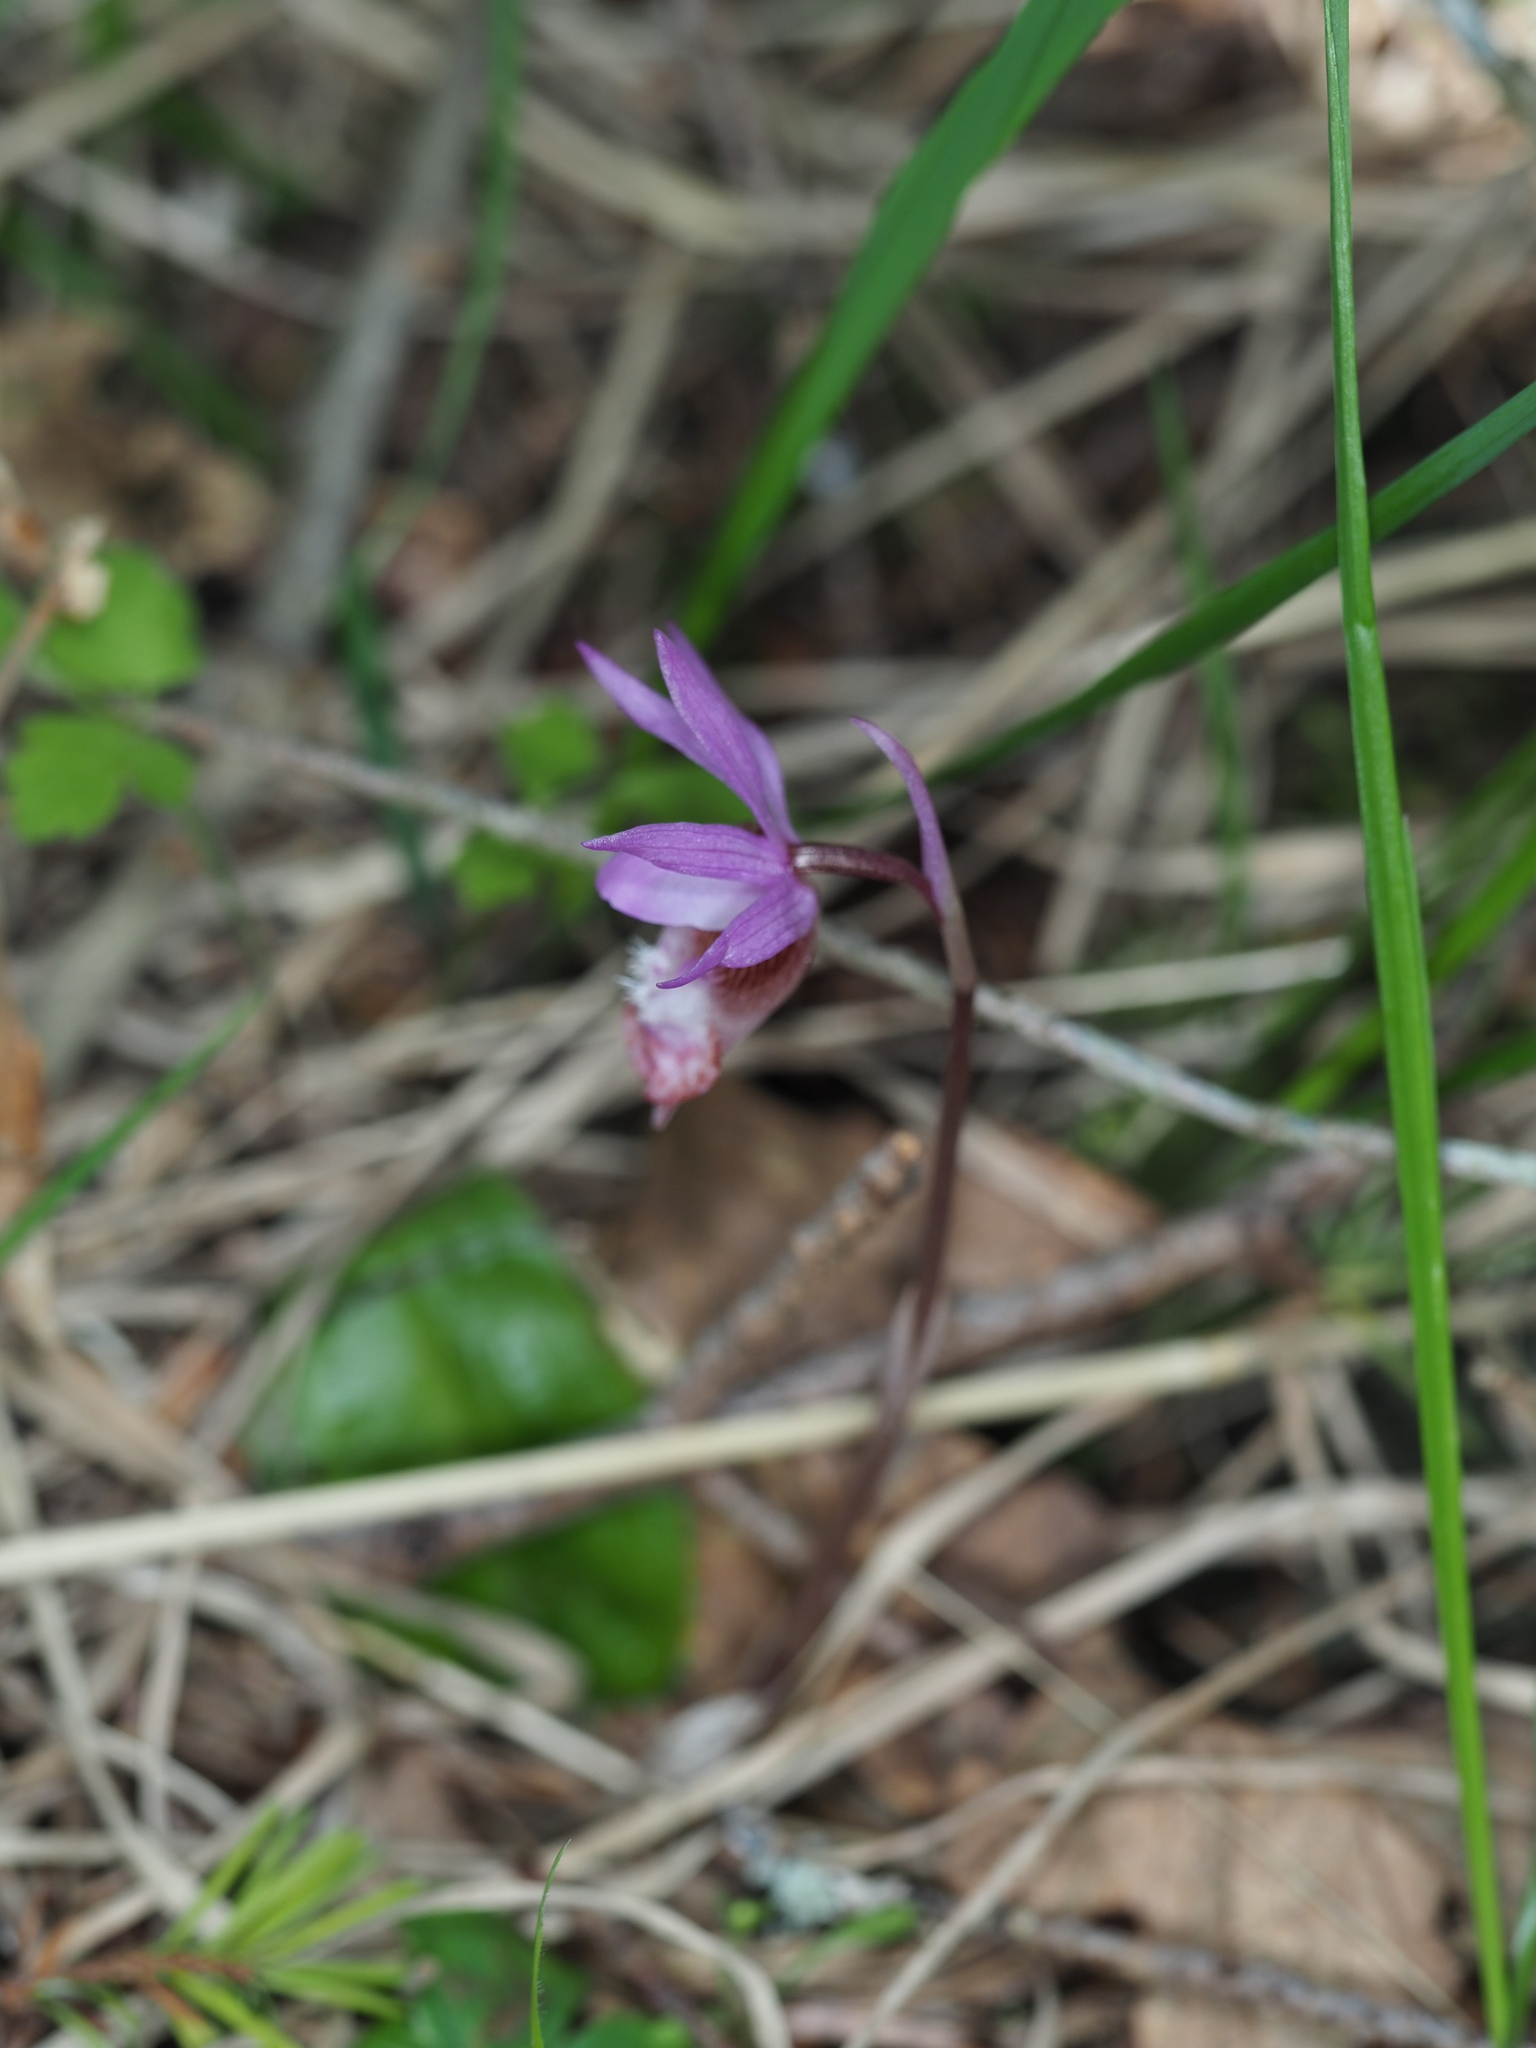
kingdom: Plantae
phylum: Tracheophyta
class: Liliopsida
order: Asparagales
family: Orchidaceae
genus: Calypso
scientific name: Calypso bulbosa
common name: Calypso
